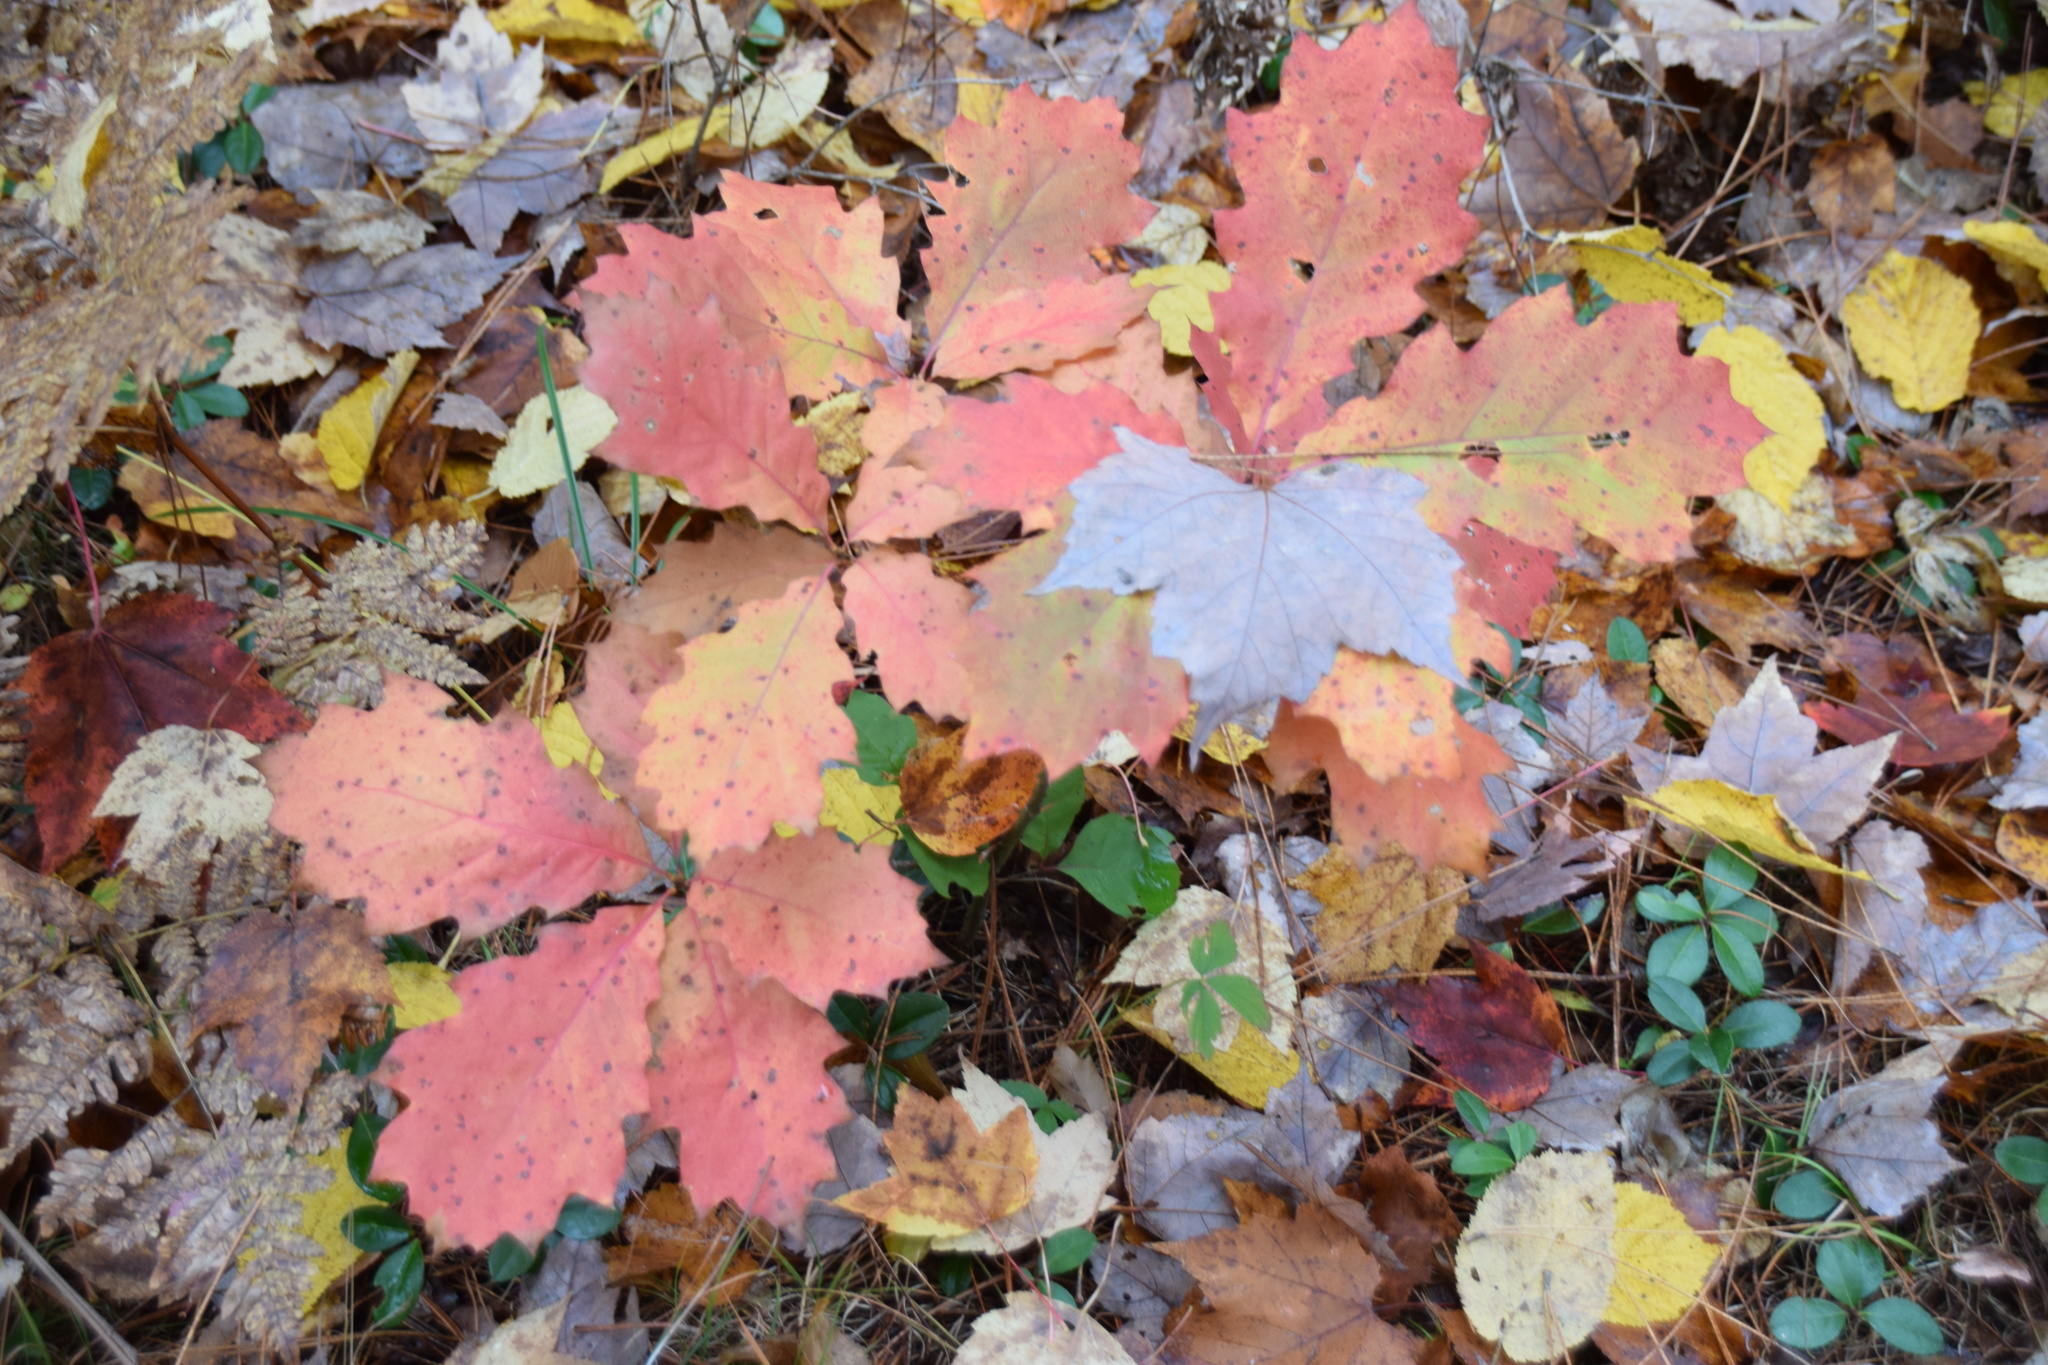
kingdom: Plantae
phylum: Tracheophyta
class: Magnoliopsida
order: Fagales
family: Fagaceae
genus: Quercus
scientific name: Quercus rubra
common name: Red oak
